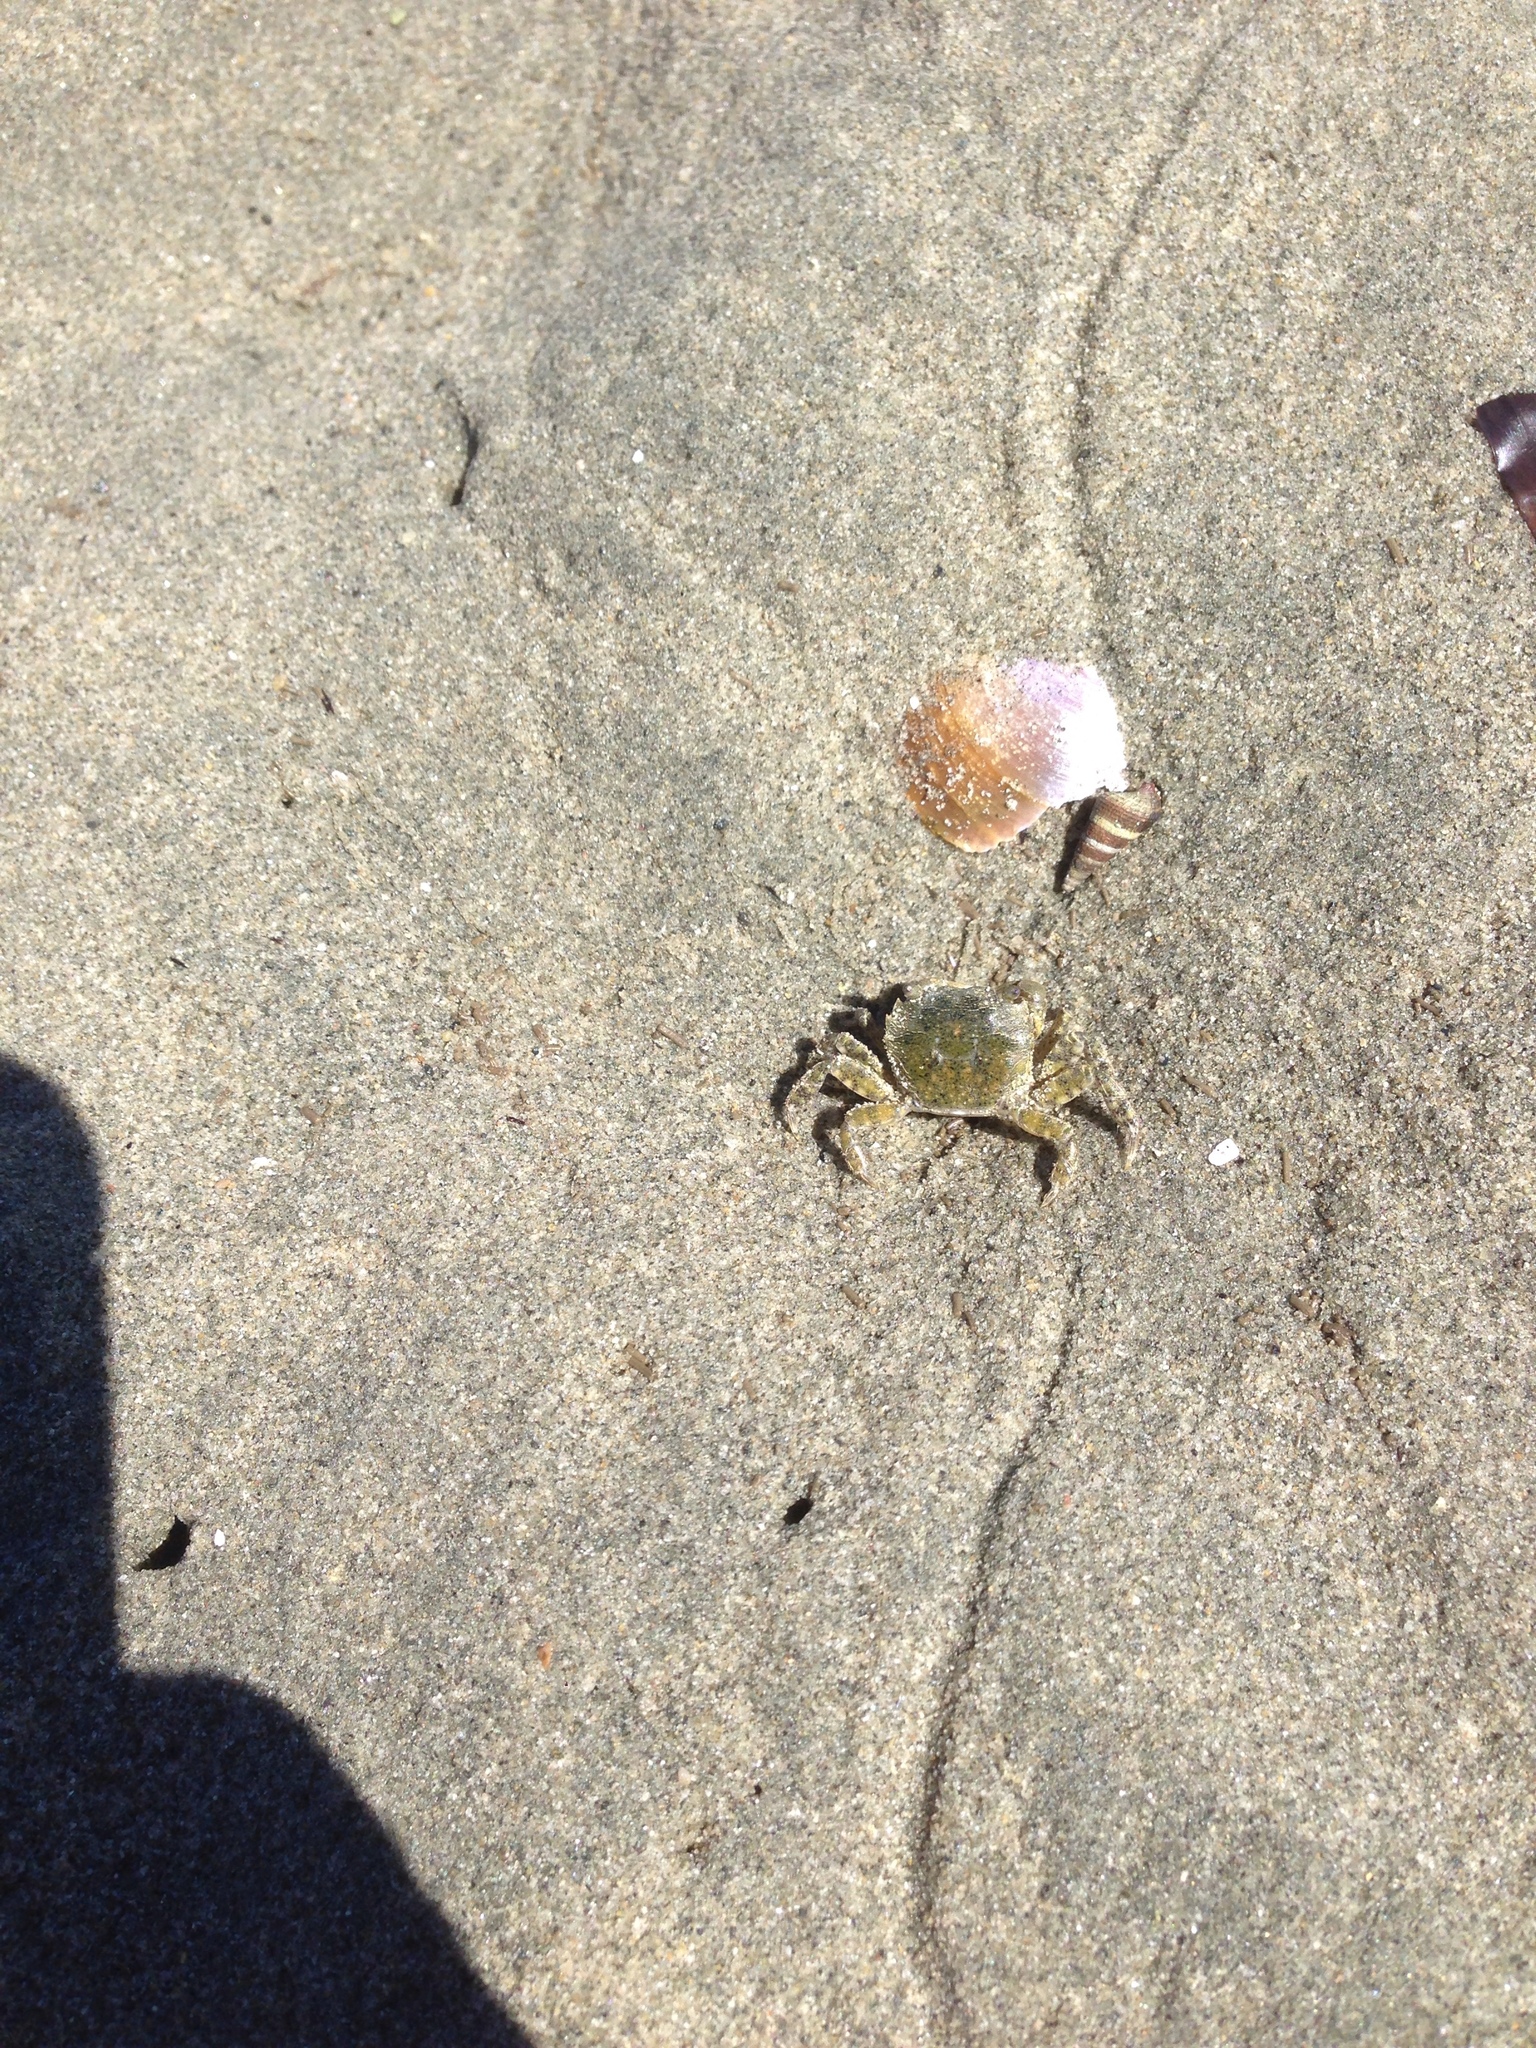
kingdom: Animalia
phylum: Arthropoda
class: Malacostraca
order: Decapoda
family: Varunidae
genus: Hemigrapsus
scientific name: Hemigrapsus oregonensis
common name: Yellow shore crab
